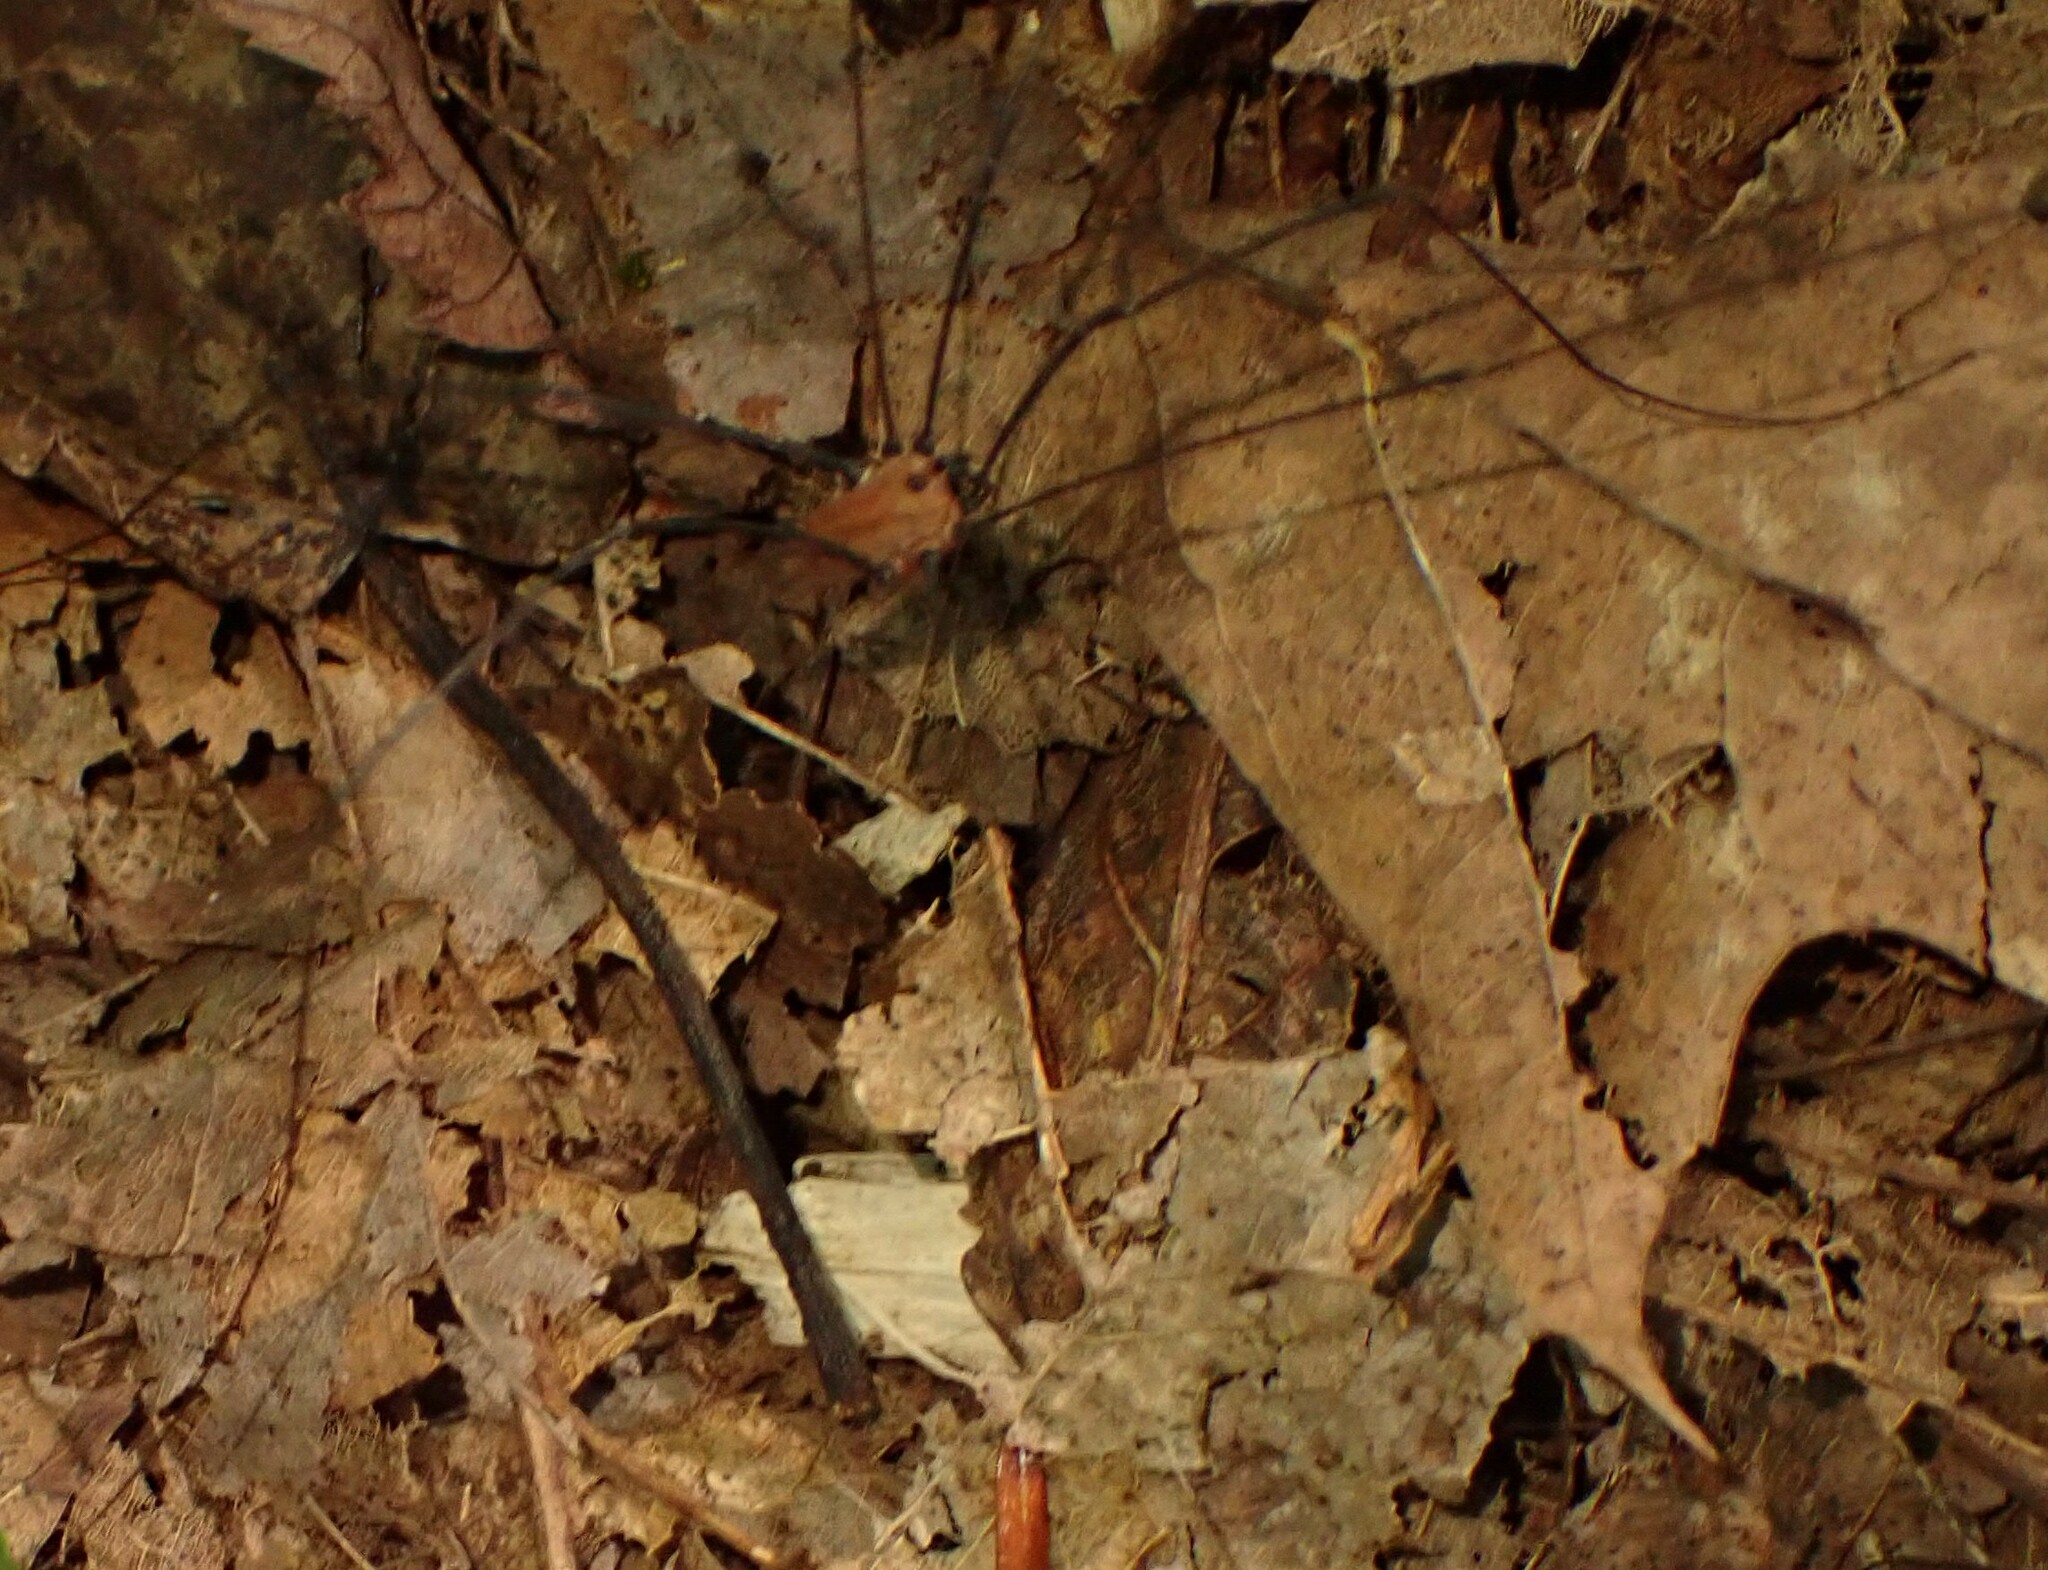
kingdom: Animalia
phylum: Arthropoda
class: Arachnida
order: Opiliones
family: Sclerosomatidae
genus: Leiobunum
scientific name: Leiobunum nigropalpi
